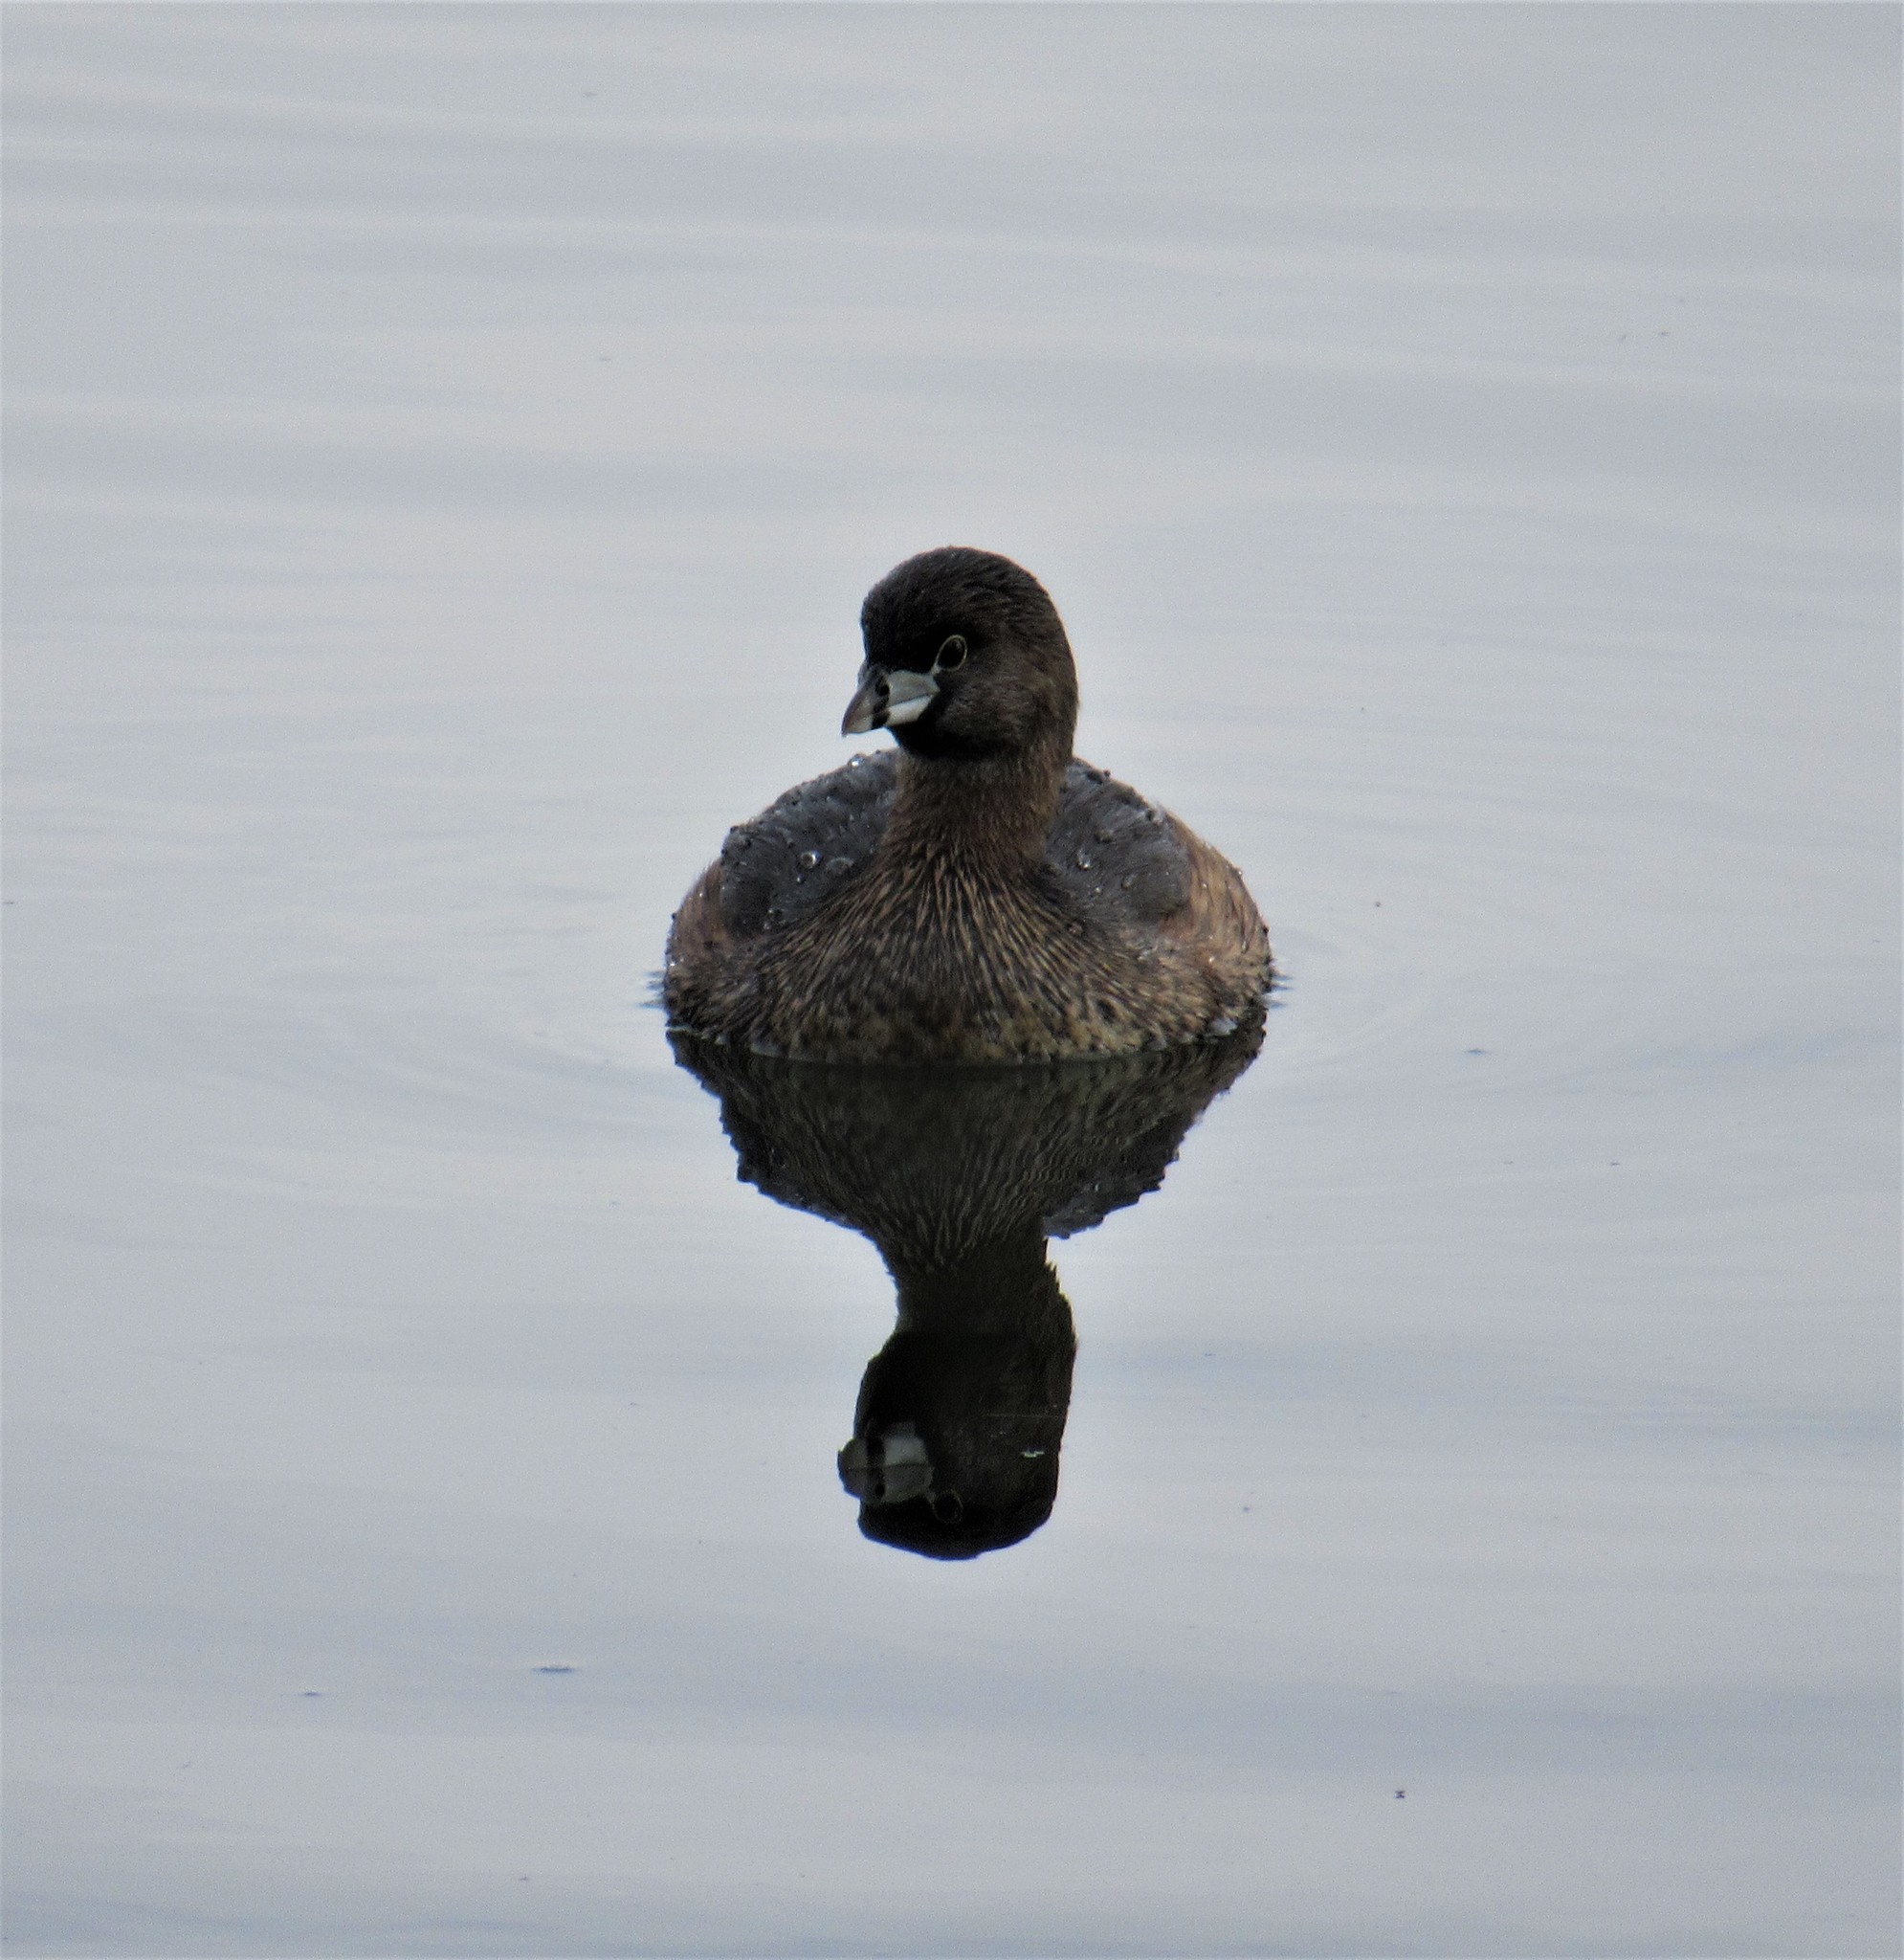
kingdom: Animalia
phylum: Chordata
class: Aves
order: Podicipediformes
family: Podicipedidae
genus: Podilymbus
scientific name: Podilymbus podiceps
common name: Pied-billed grebe
